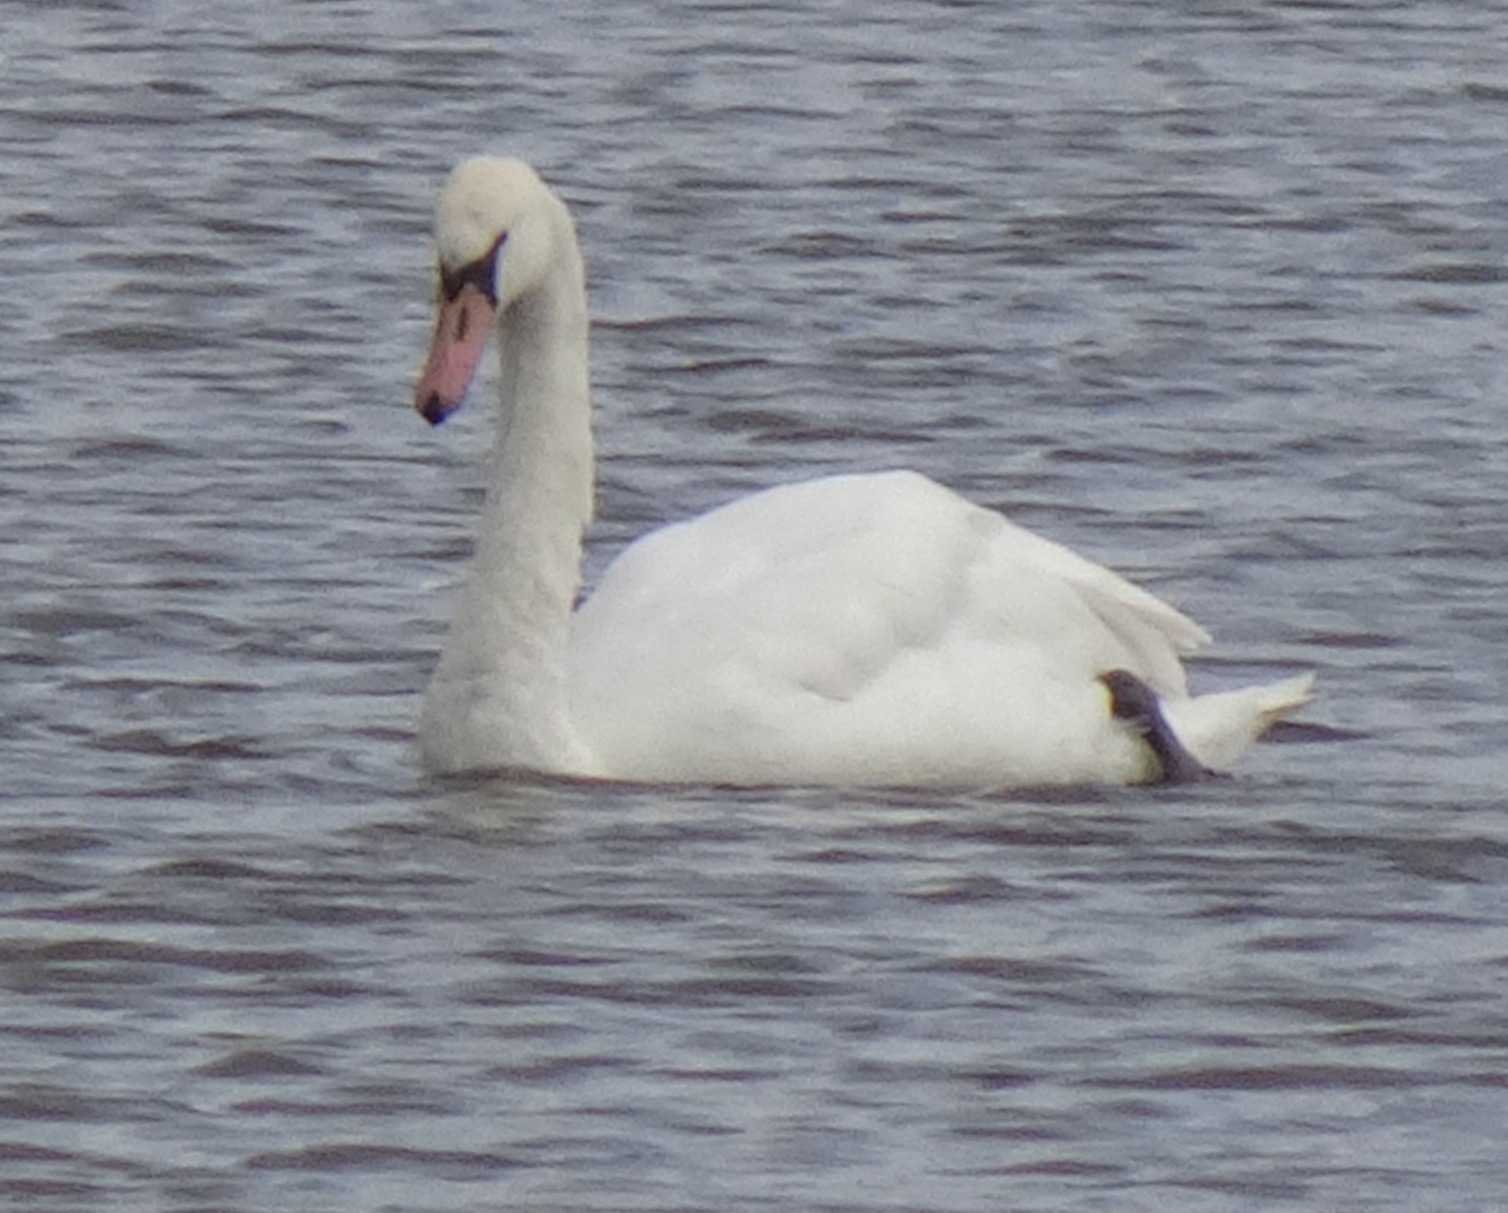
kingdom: Animalia
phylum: Chordata
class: Aves
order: Anseriformes
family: Anatidae
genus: Cygnus
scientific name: Cygnus olor
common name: Mute swan
